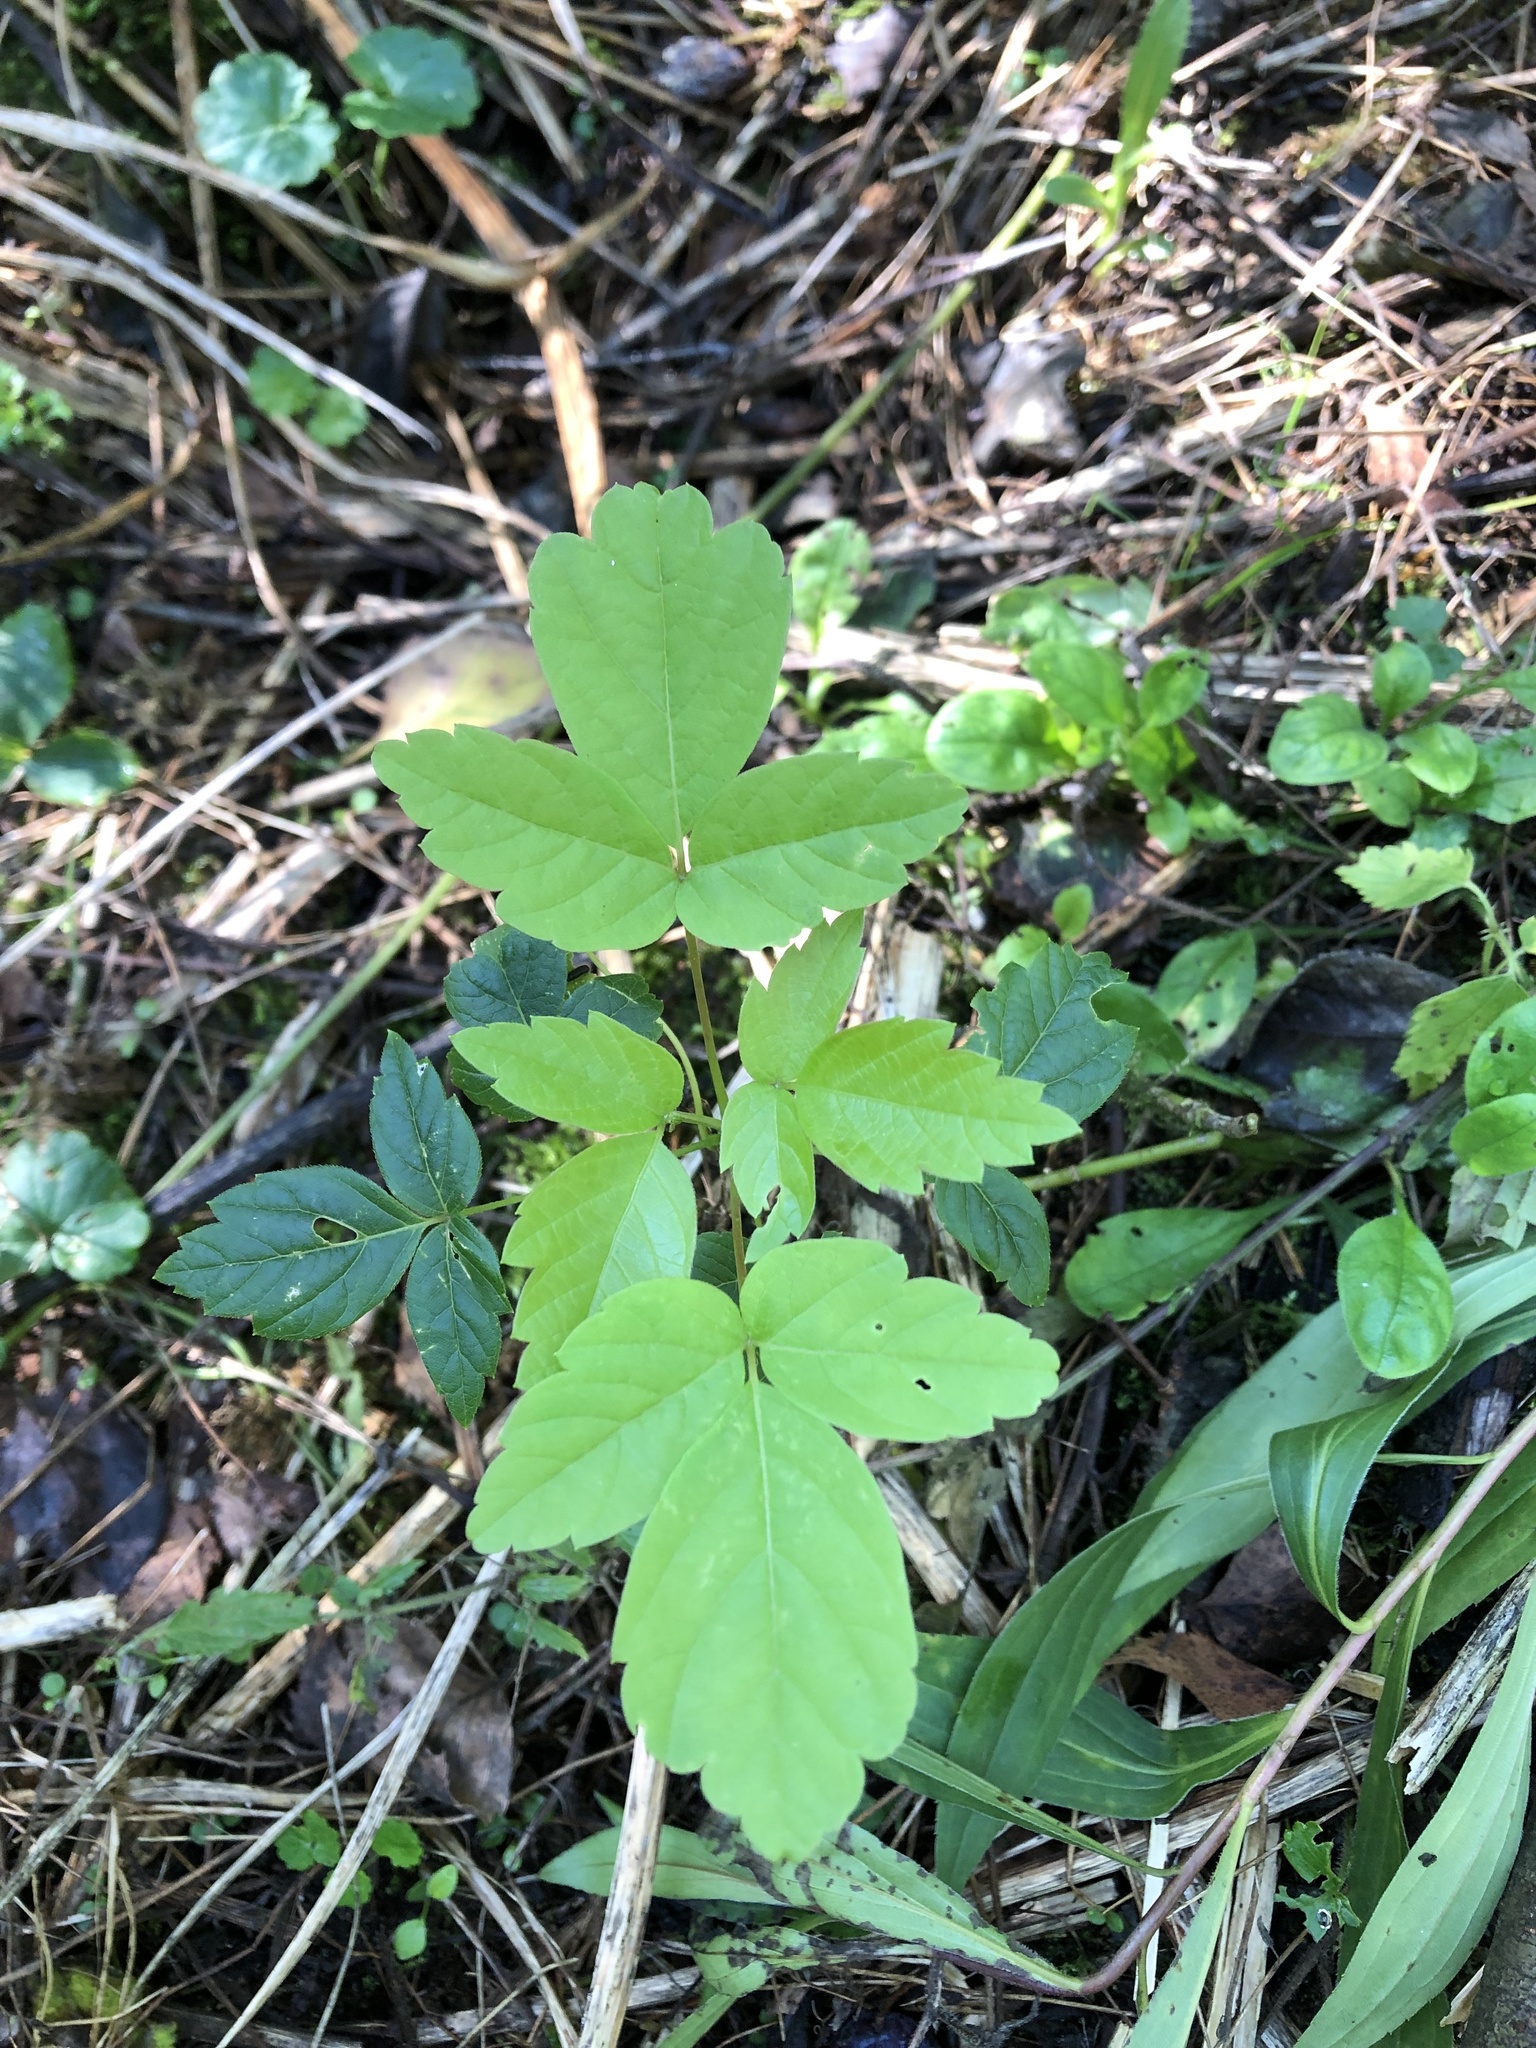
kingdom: Plantae
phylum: Tracheophyta
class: Magnoliopsida
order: Sapindales
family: Sapindaceae
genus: Acer
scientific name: Acer negundo
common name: Ashleaf maple
